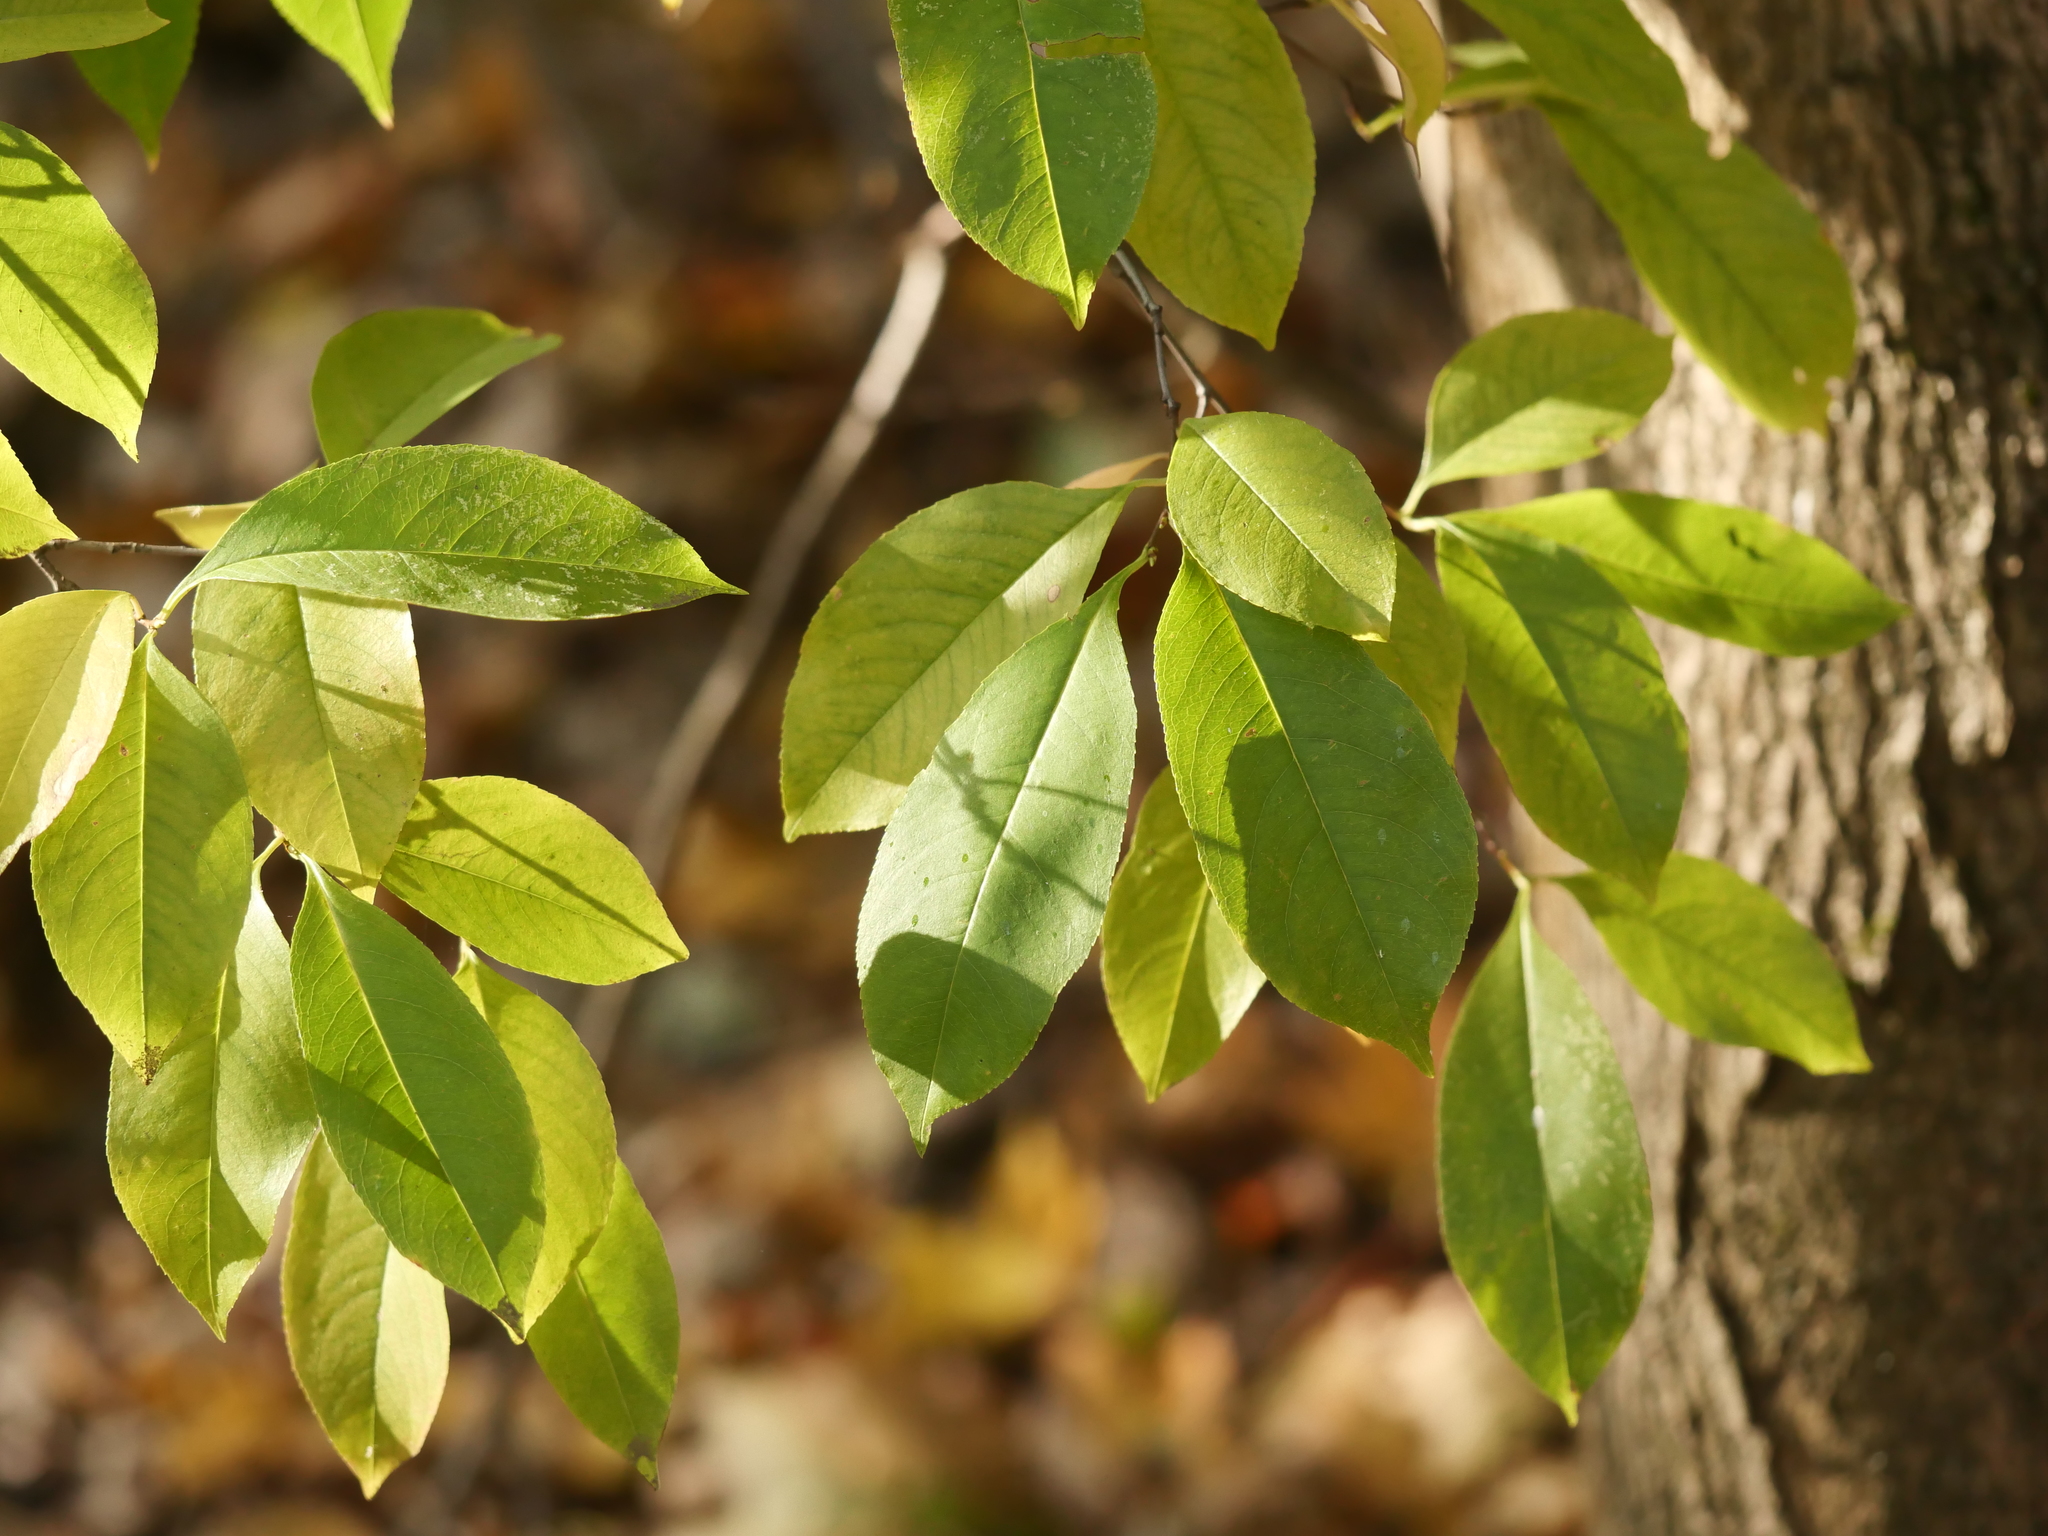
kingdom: Plantae
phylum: Tracheophyta
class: Magnoliopsida
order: Rosales
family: Rosaceae
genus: Prunus
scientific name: Prunus serotina
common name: Black cherry
